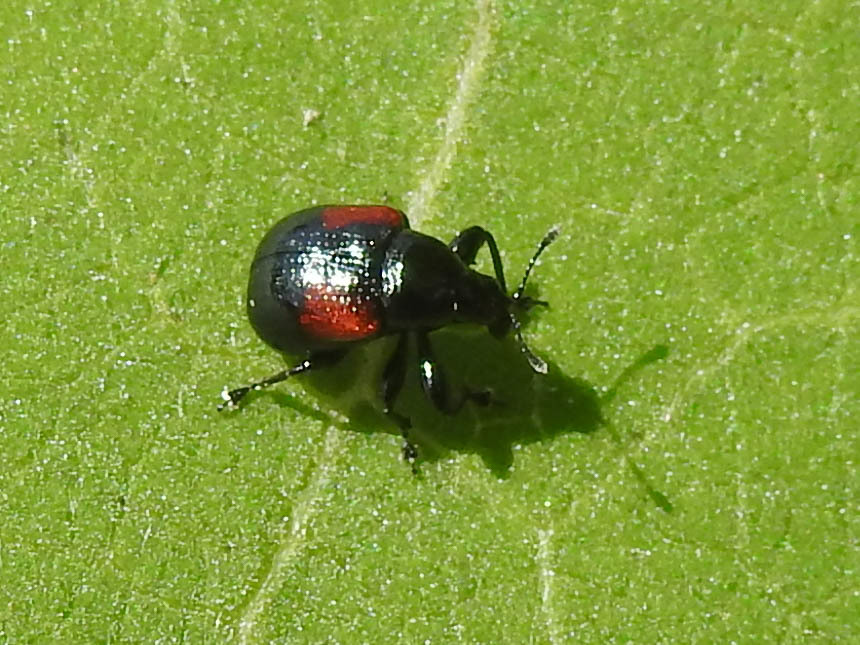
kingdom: Animalia
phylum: Arthropoda
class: Insecta
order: Coleoptera
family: Attelabidae
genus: Attelabus
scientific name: Attelabus bipustulatus
